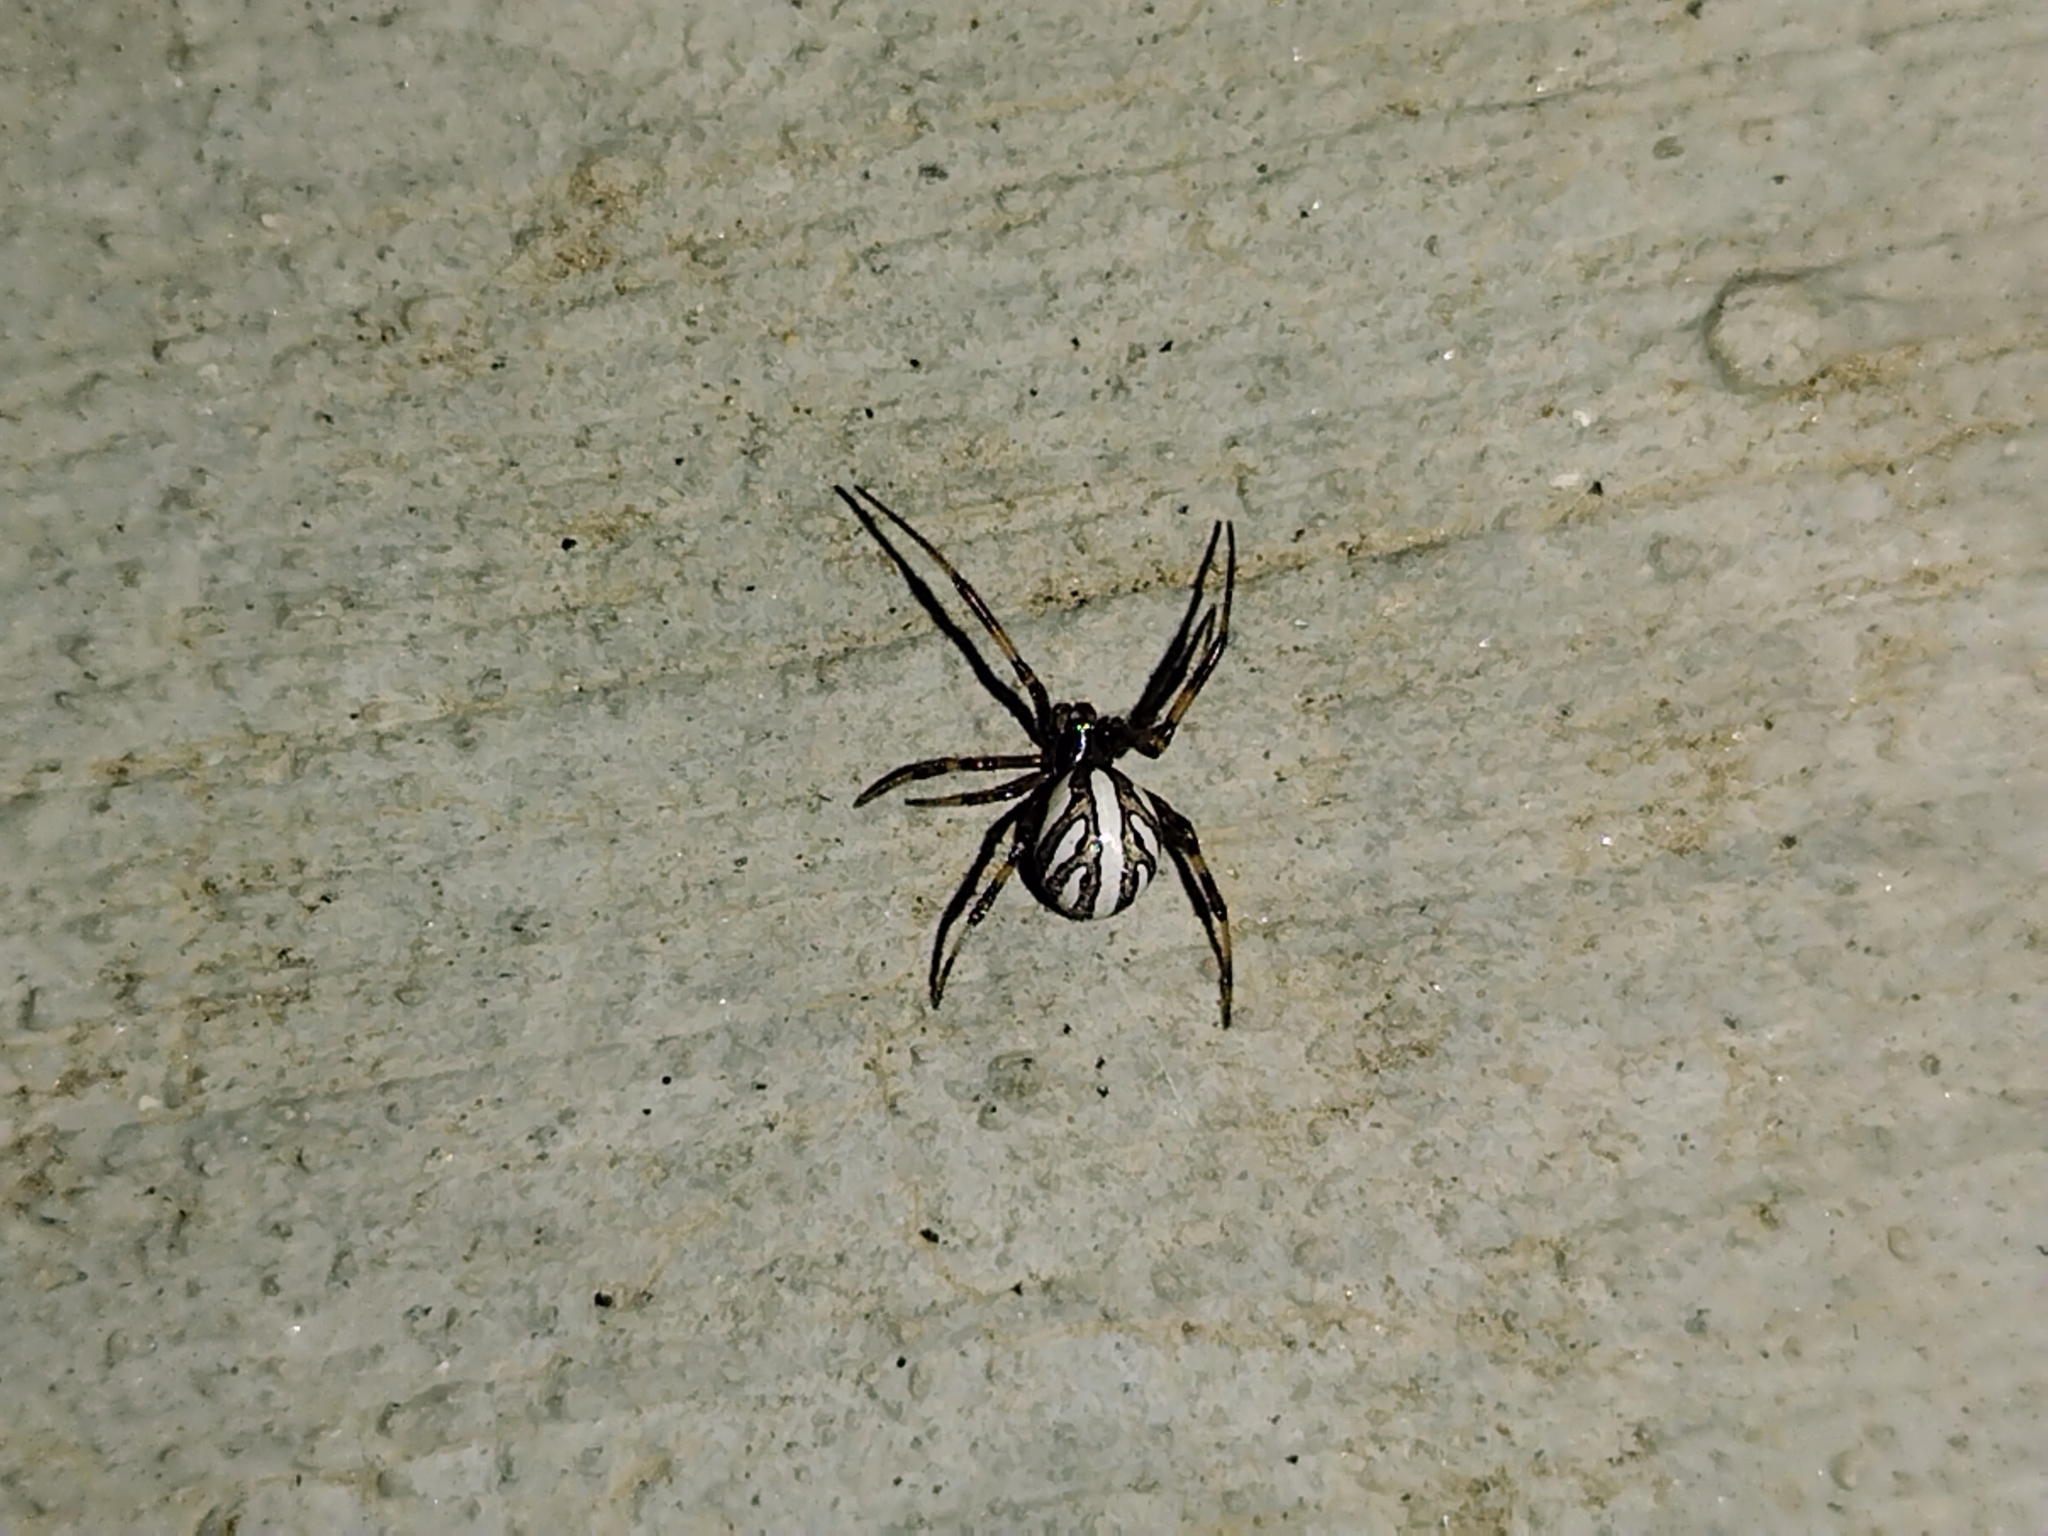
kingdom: Animalia
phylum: Arthropoda
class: Arachnida
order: Araneae
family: Theridiidae
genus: Latrodectus
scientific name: Latrodectus hesperus
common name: Western black widow
